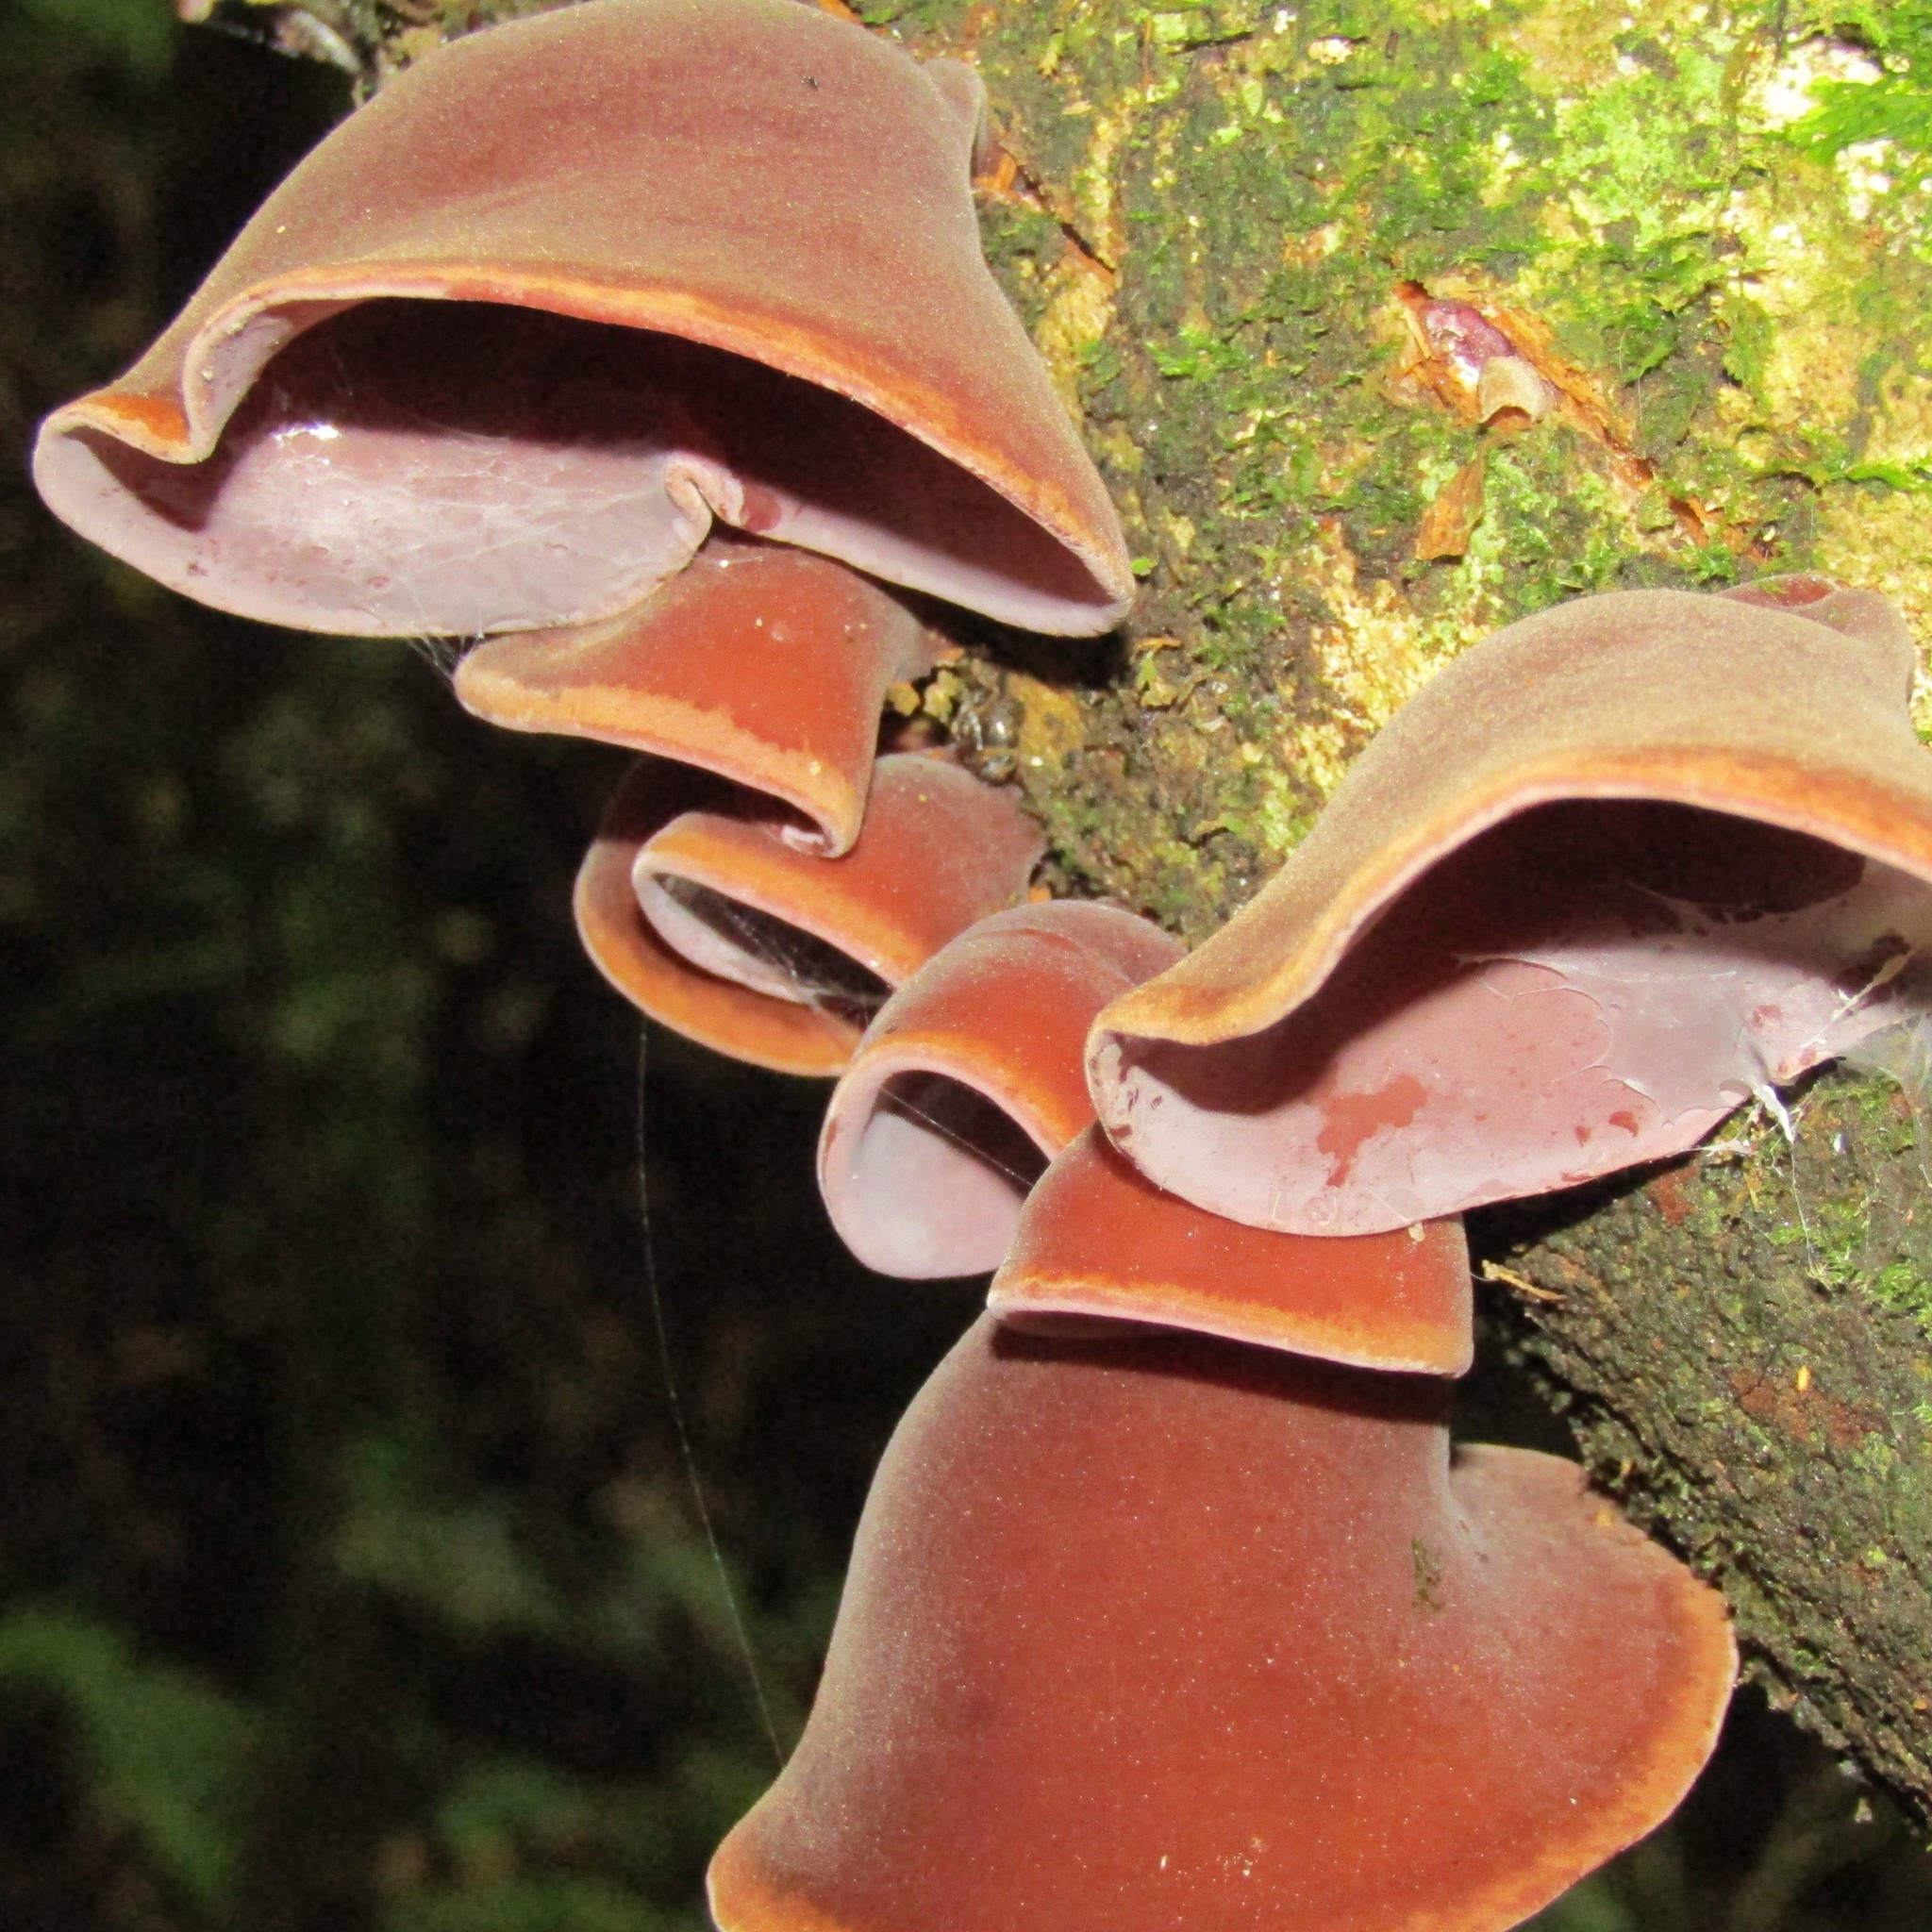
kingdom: Fungi
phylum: Basidiomycota
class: Agaricomycetes
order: Auriculariales
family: Auriculariaceae
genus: Auricularia
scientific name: Auricularia cornea
